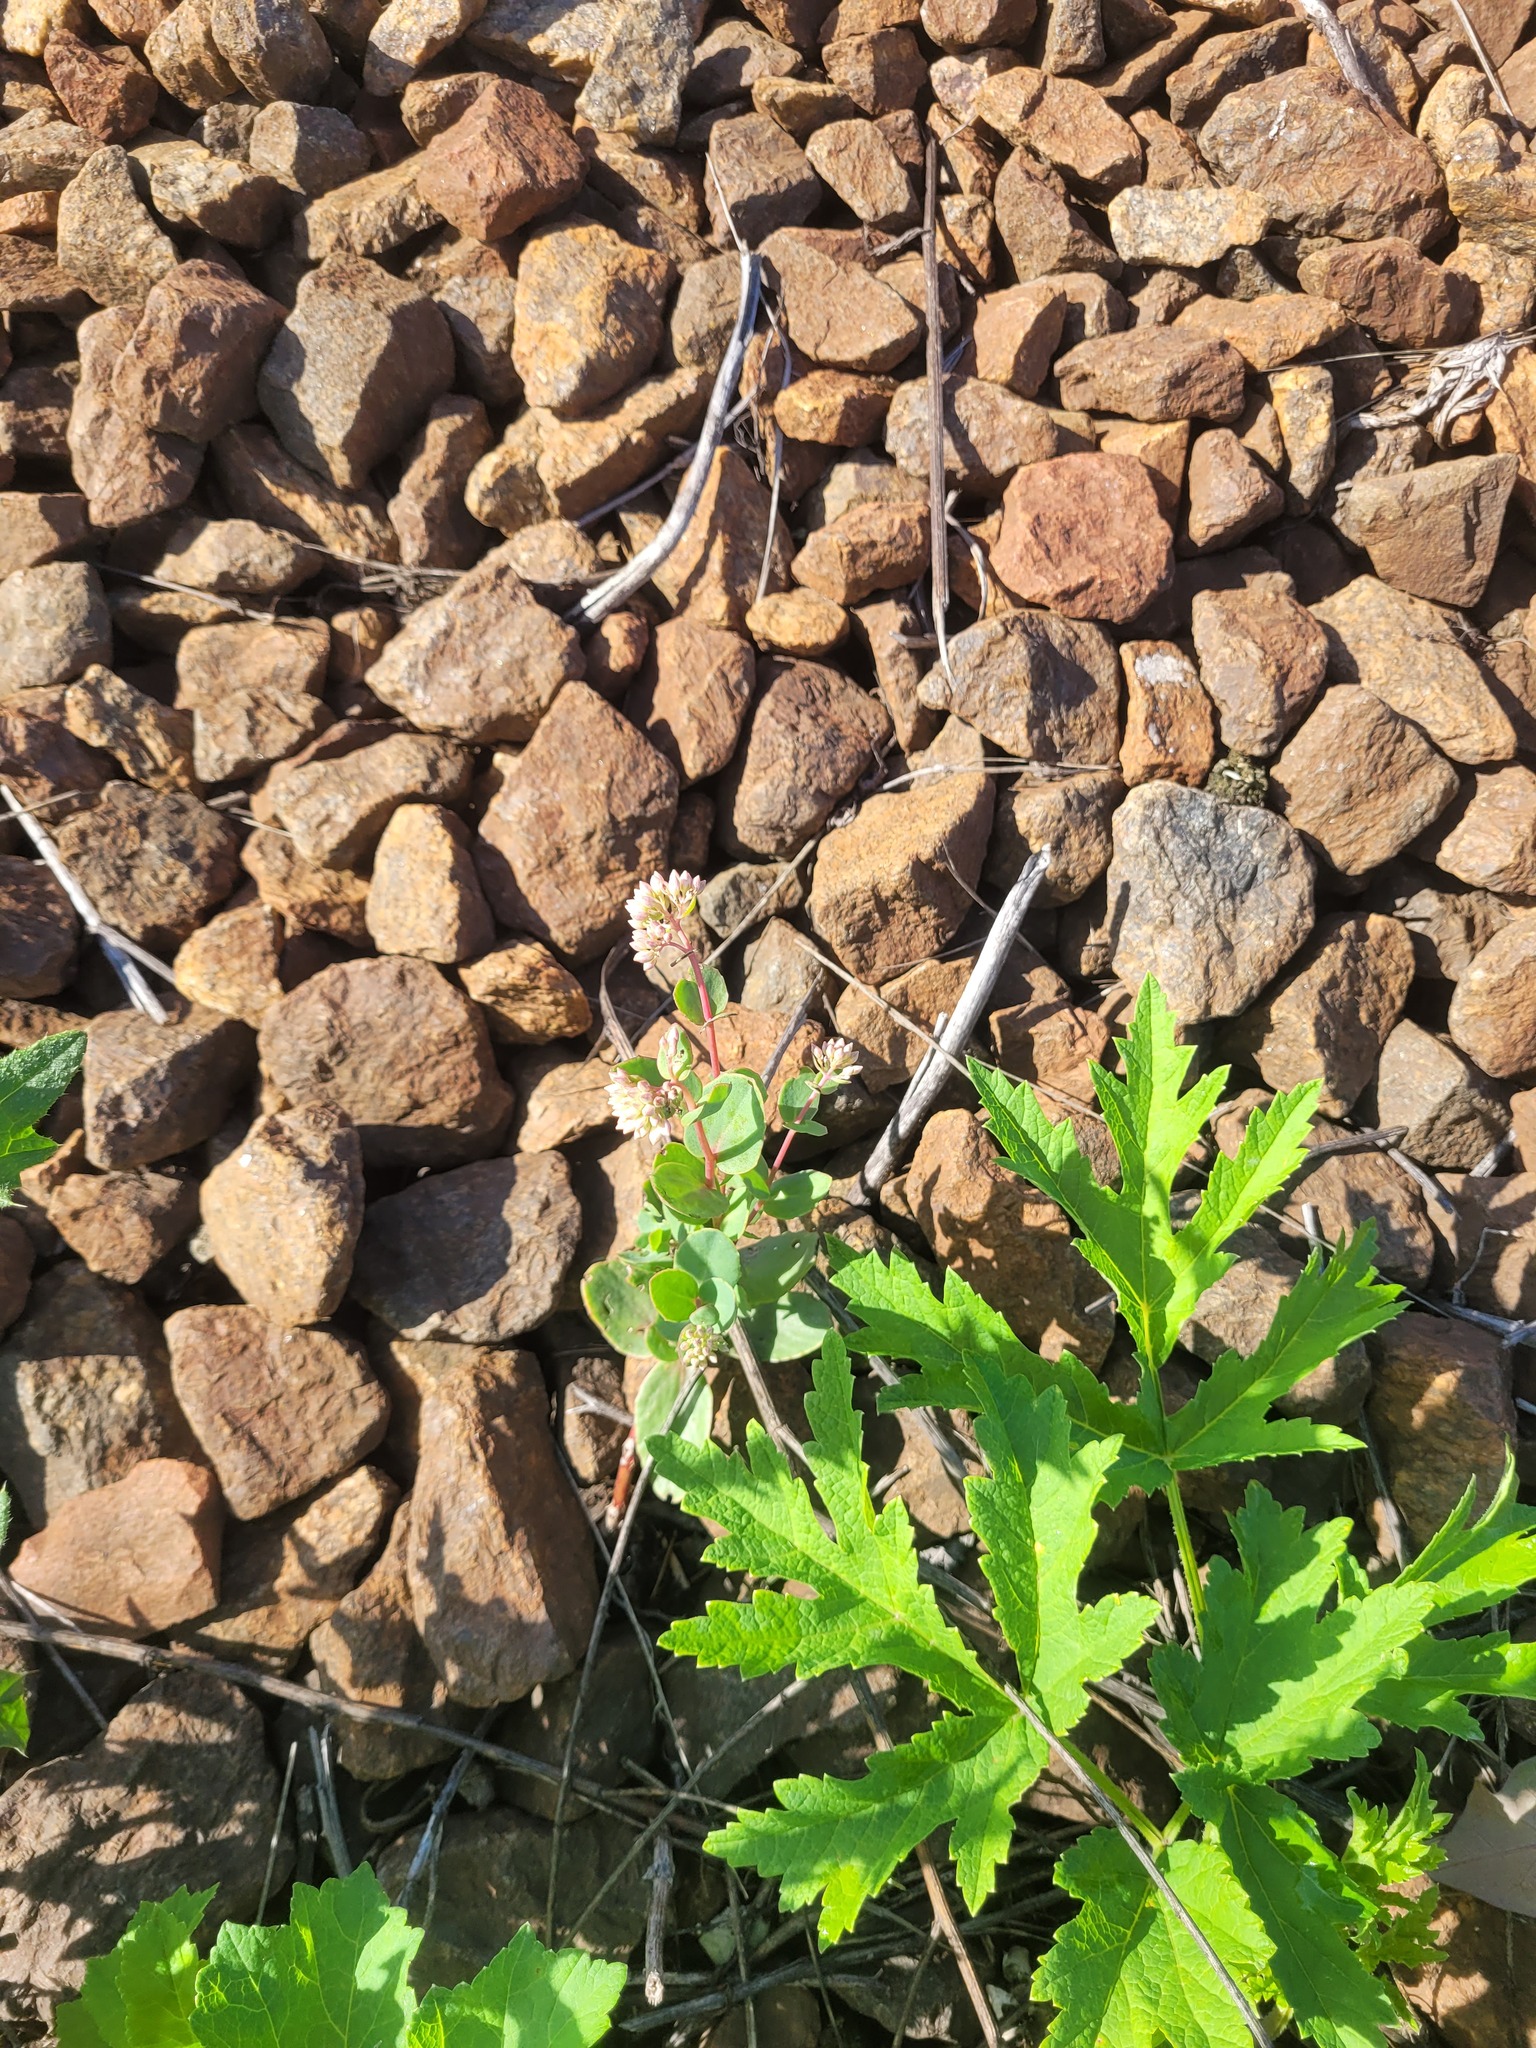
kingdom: Plantae
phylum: Tracheophyta
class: Magnoliopsida
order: Saxifragales
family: Crassulaceae
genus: Hylotelephium
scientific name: Hylotelephium maximum
